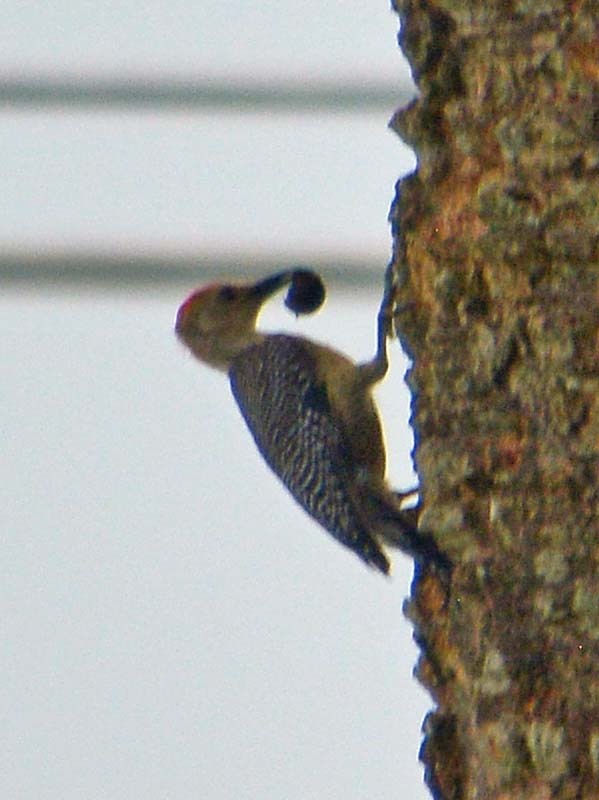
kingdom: Animalia
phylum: Chordata
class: Aves
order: Piciformes
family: Picidae
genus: Melanerpes
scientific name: Melanerpes aurifrons
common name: Golden-fronted woodpecker
